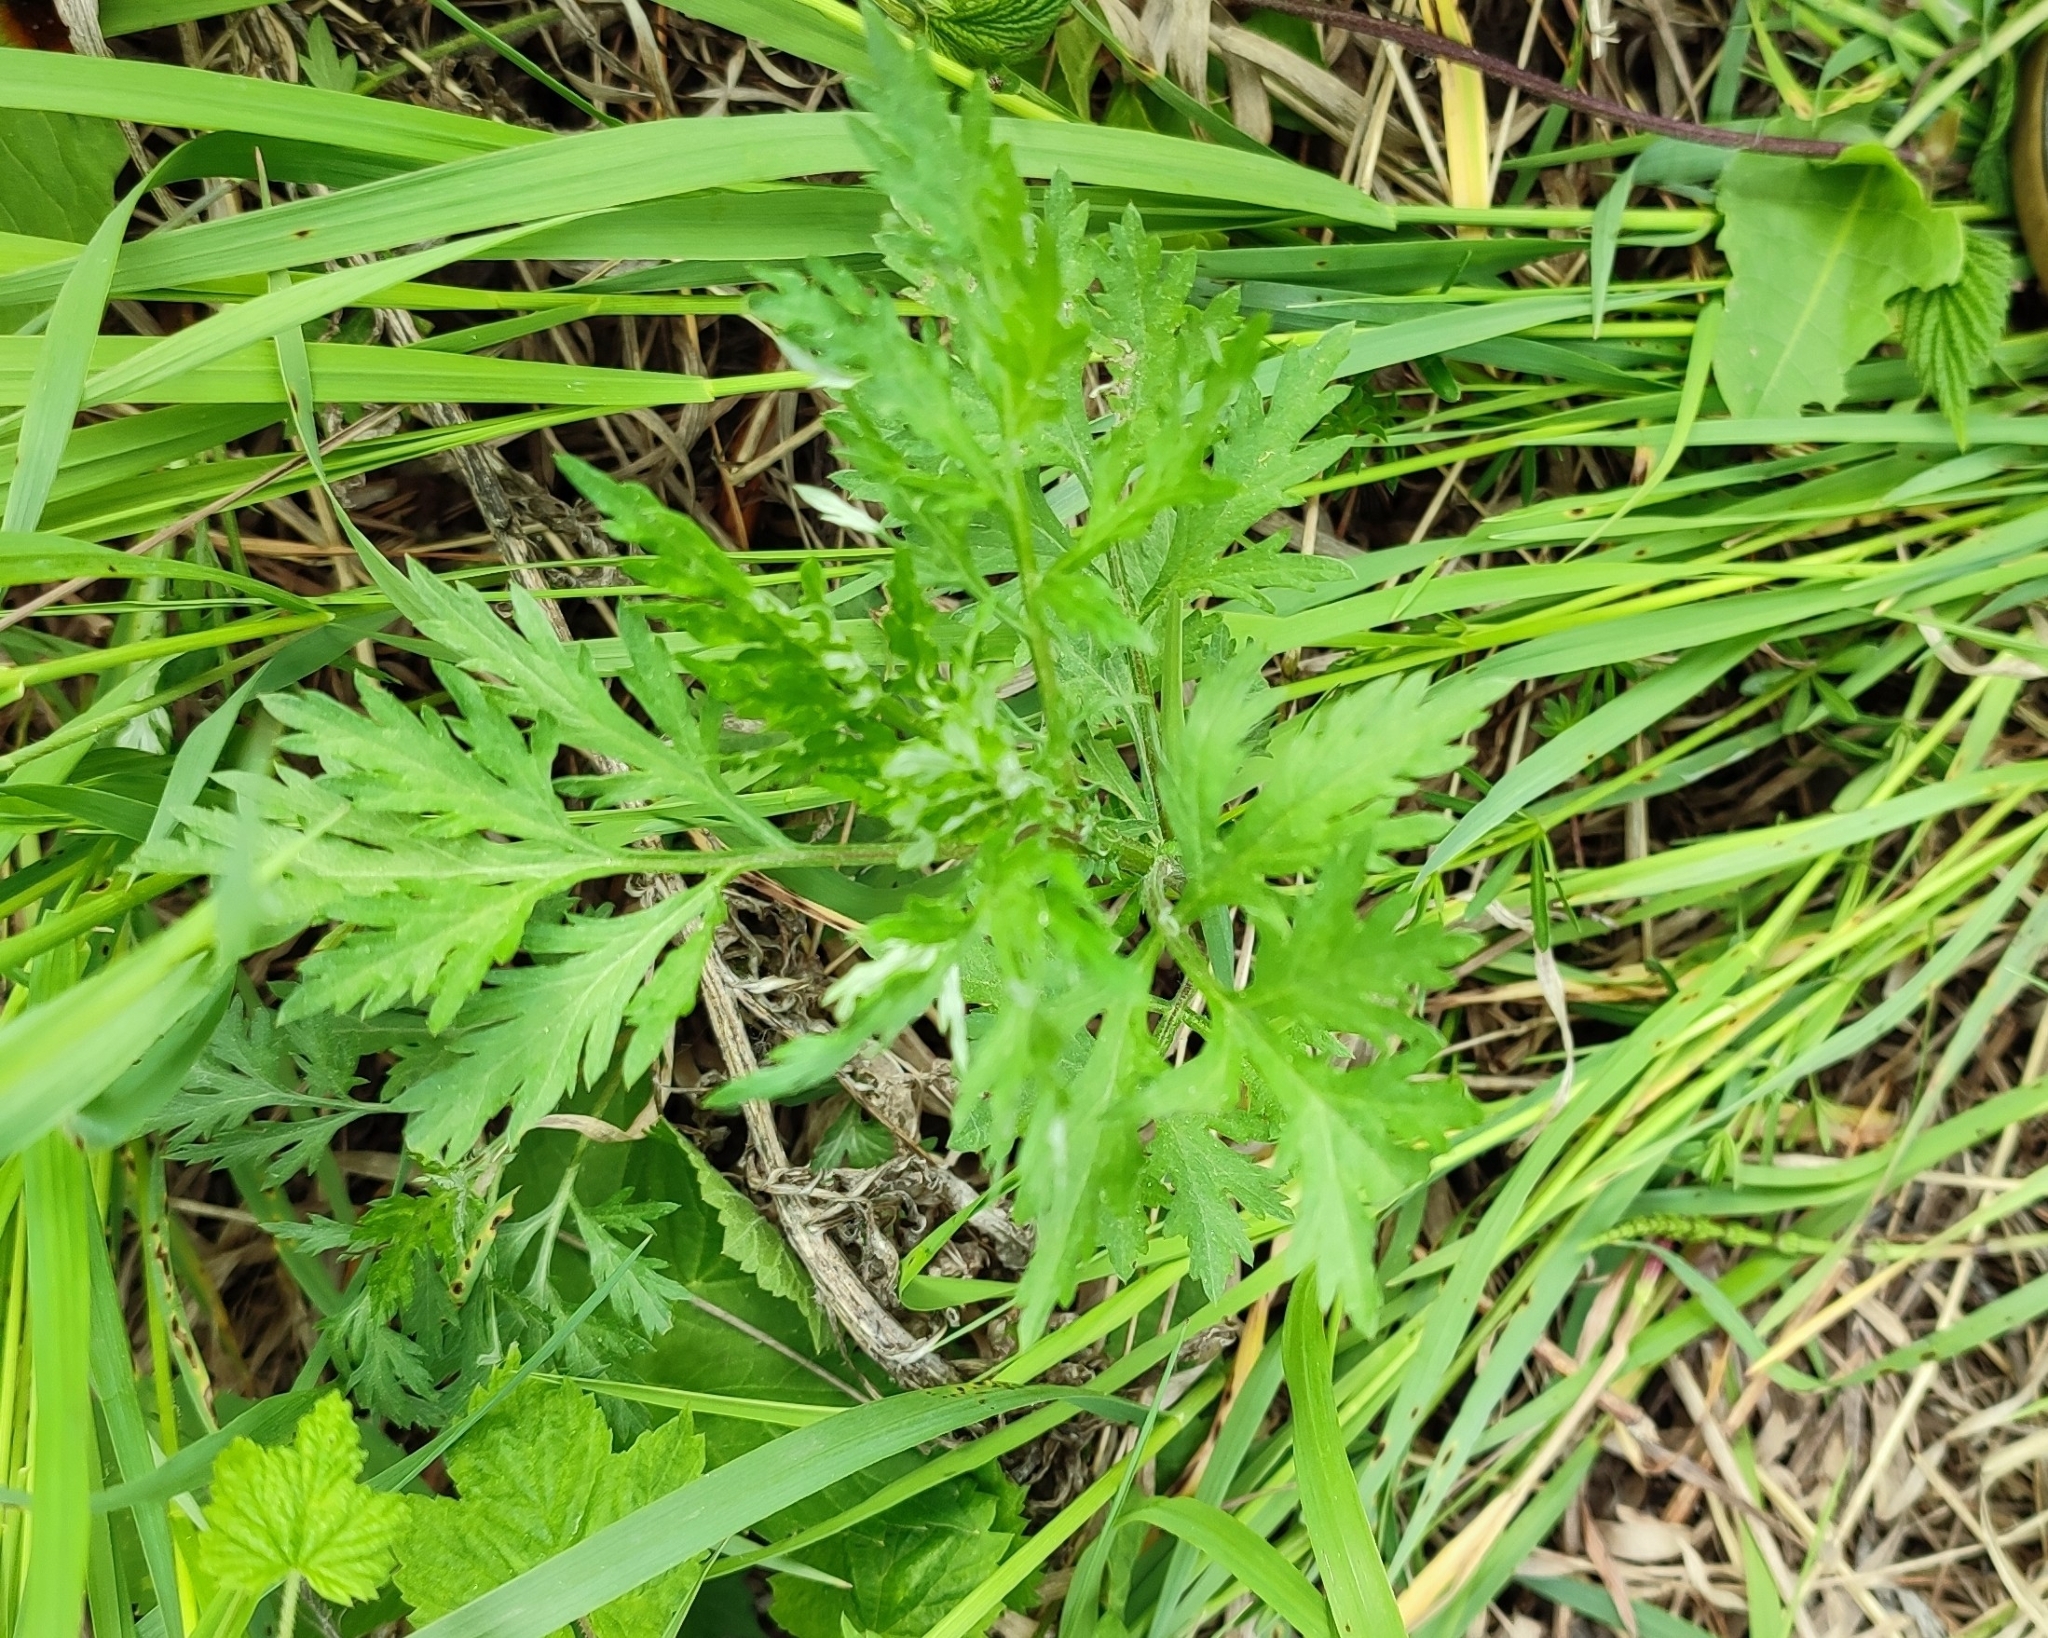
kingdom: Plantae
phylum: Tracheophyta
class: Magnoliopsida
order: Asterales
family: Asteraceae
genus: Artemisia
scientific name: Artemisia vulgaris
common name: Mugwort
